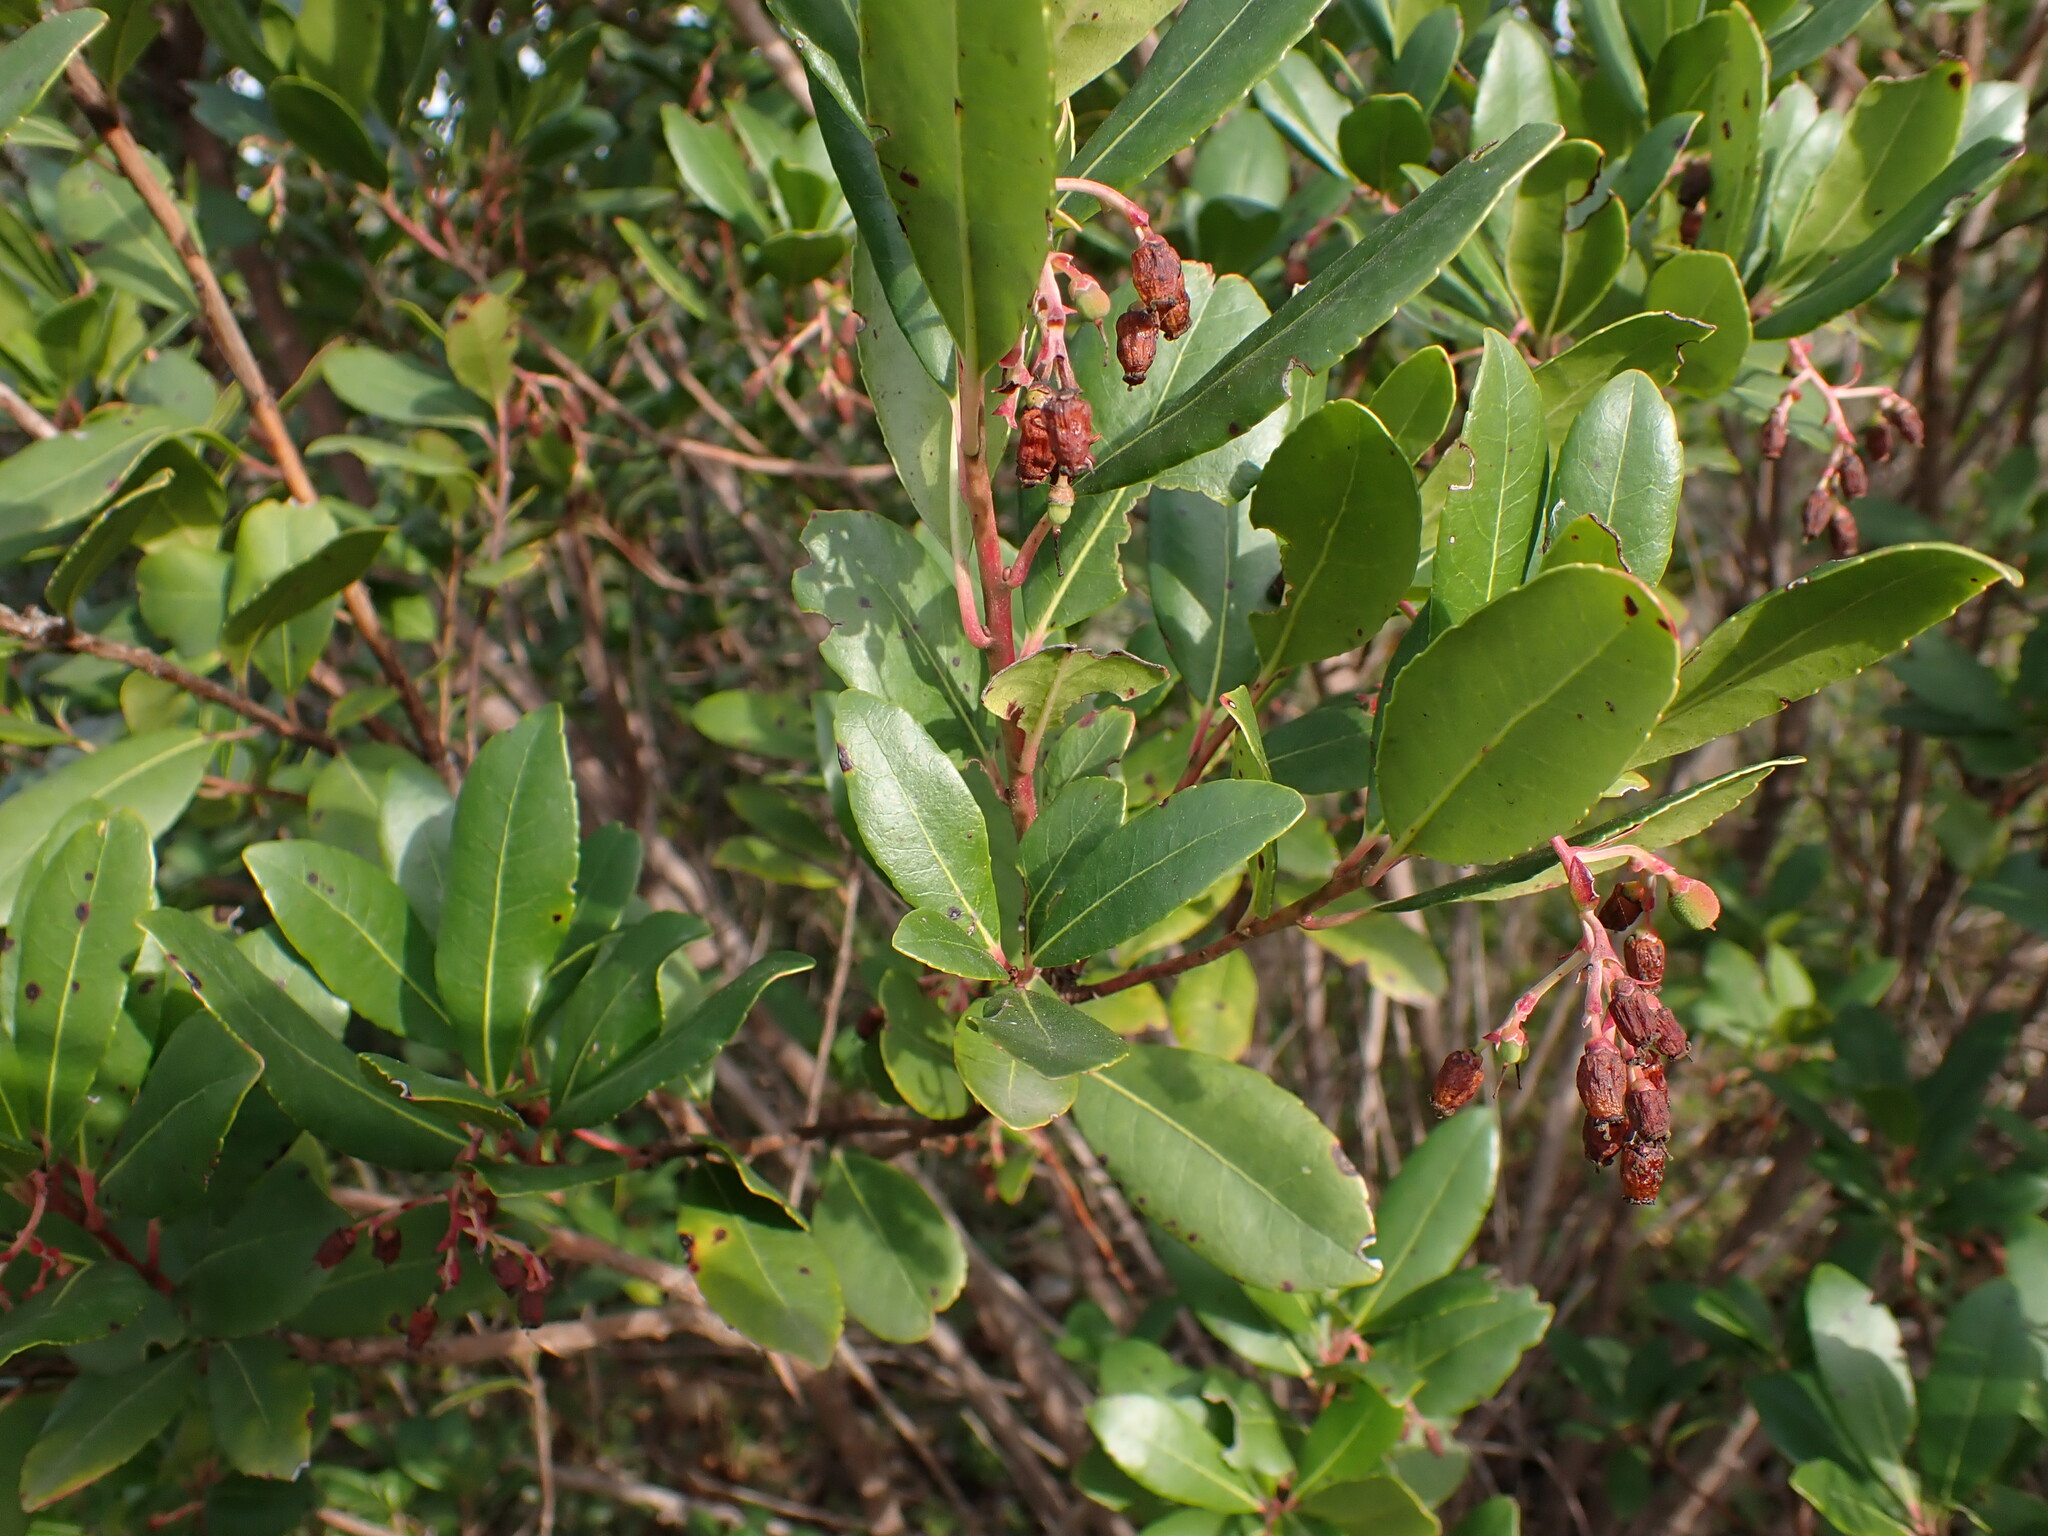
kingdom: Plantae
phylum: Tracheophyta
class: Magnoliopsida
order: Ericales
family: Ericaceae
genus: Arbutus
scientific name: Arbutus unedo
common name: Strawberry-tree
